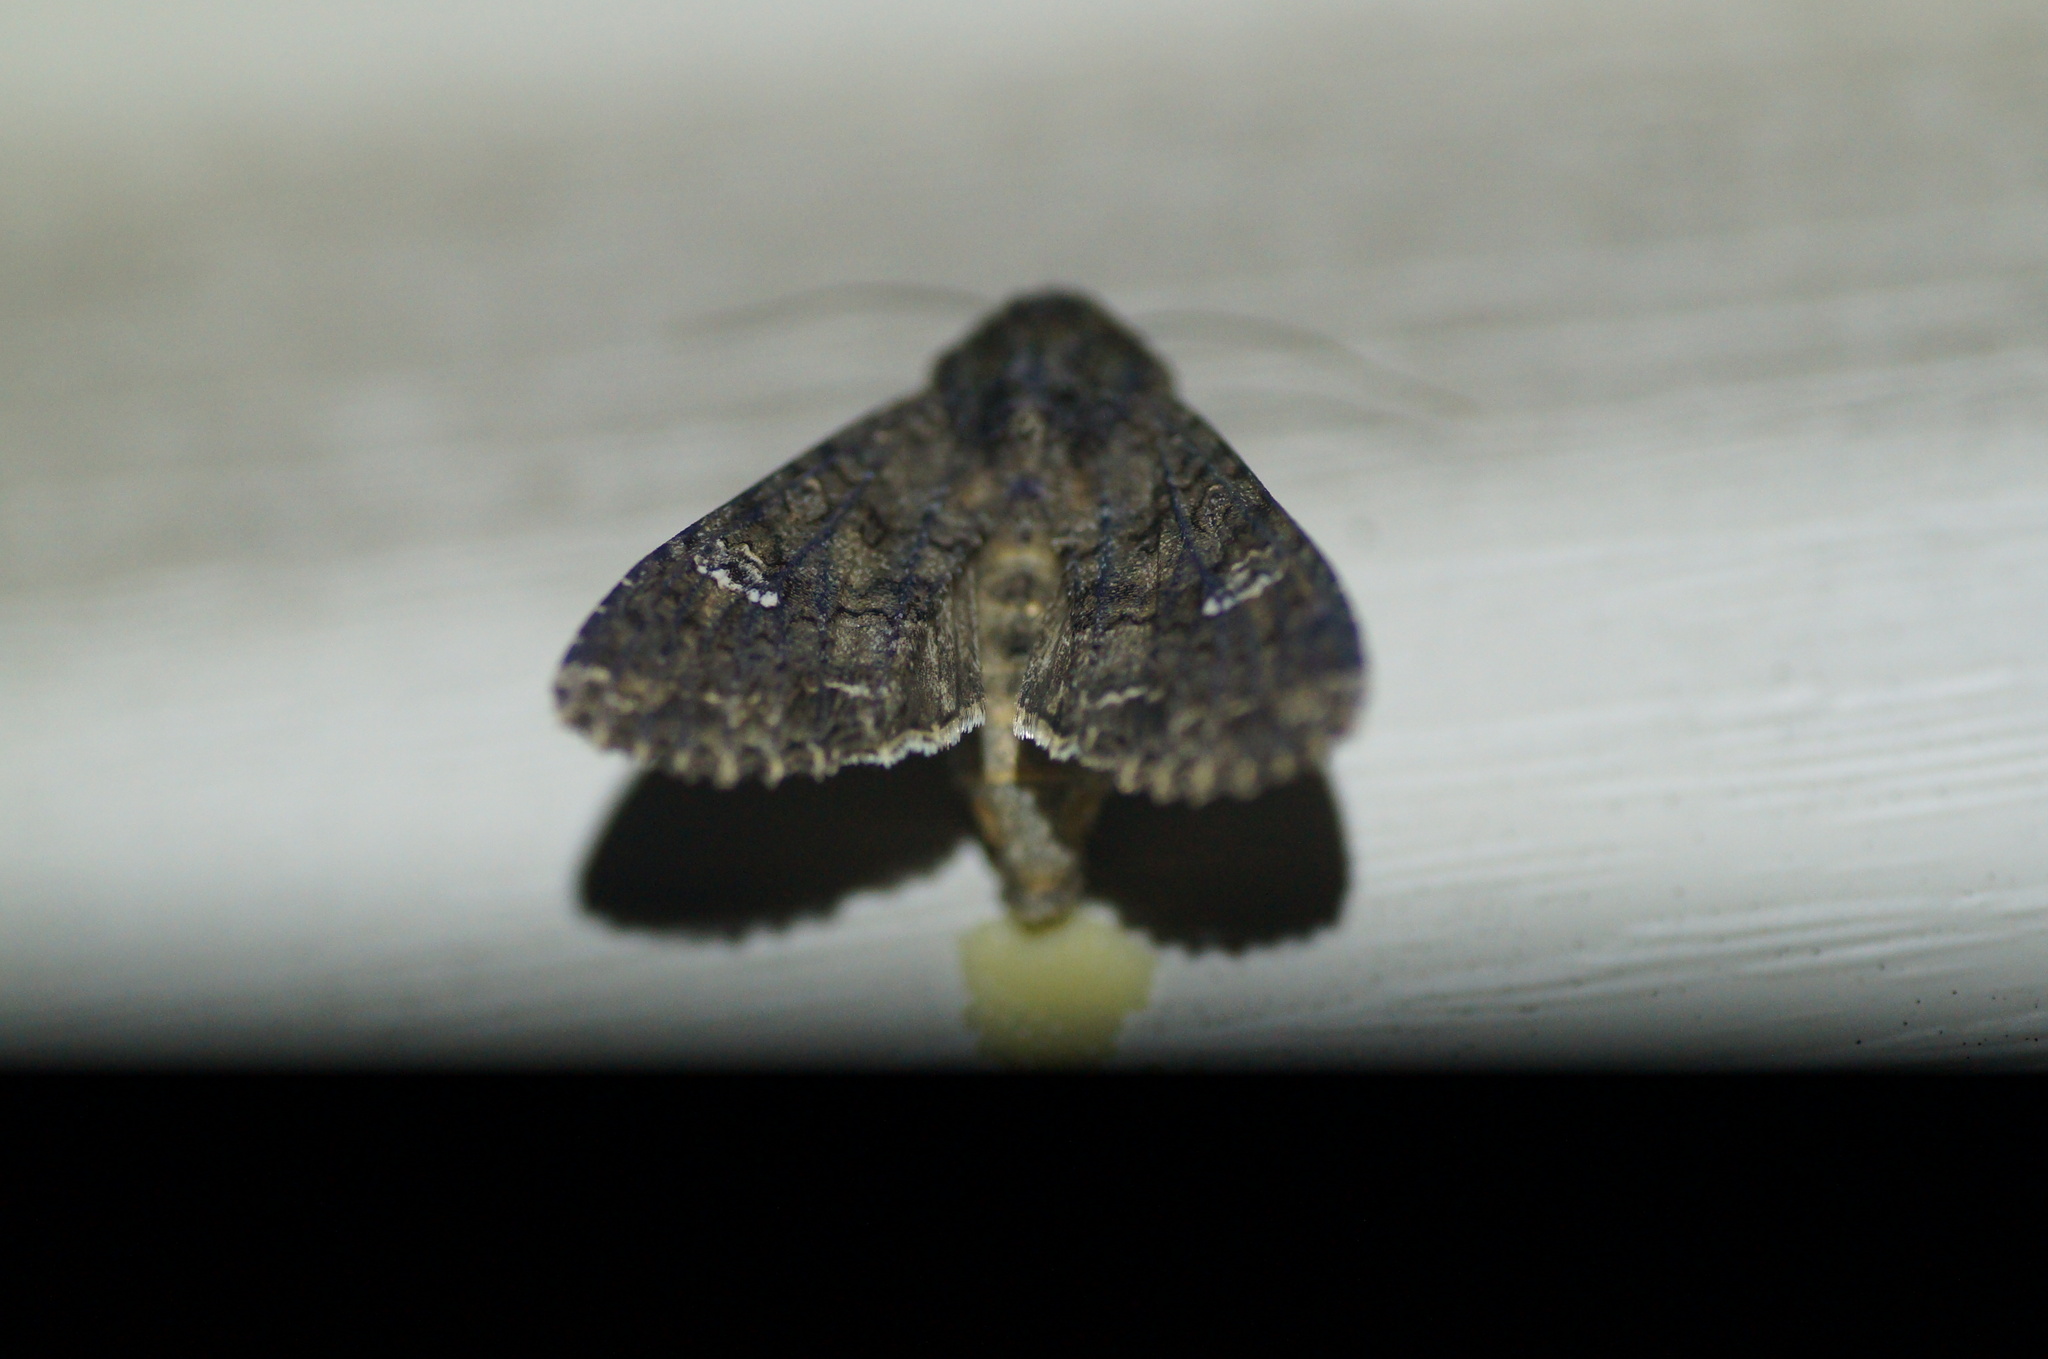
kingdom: Animalia
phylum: Arthropoda
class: Insecta
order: Lepidoptera
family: Noctuidae
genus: Mamestra
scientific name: Mamestra brassicae
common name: Cabbage moth
